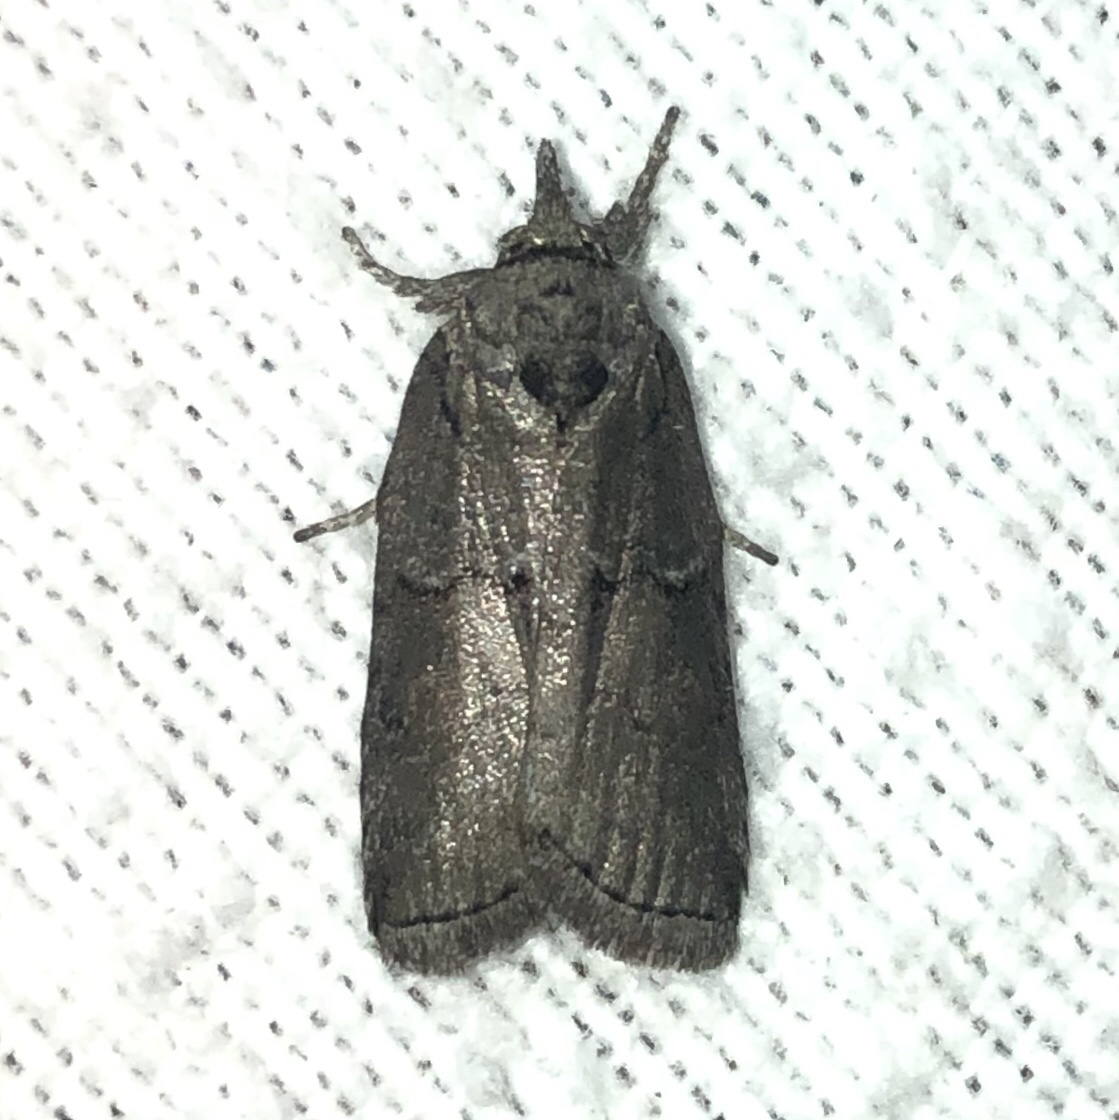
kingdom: Animalia
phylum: Arthropoda
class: Insecta
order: Lepidoptera
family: Nolidae
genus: Nycteola
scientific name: Nycteola cinereana
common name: Grey midget moth
